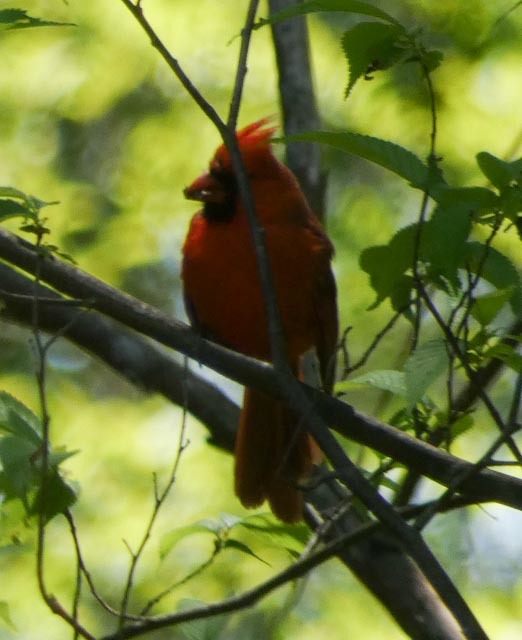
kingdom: Animalia
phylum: Chordata
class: Aves
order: Passeriformes
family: Cardinalidae
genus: Cardinalis
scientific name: Cardinalis cardinalis
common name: Northern cardinal
